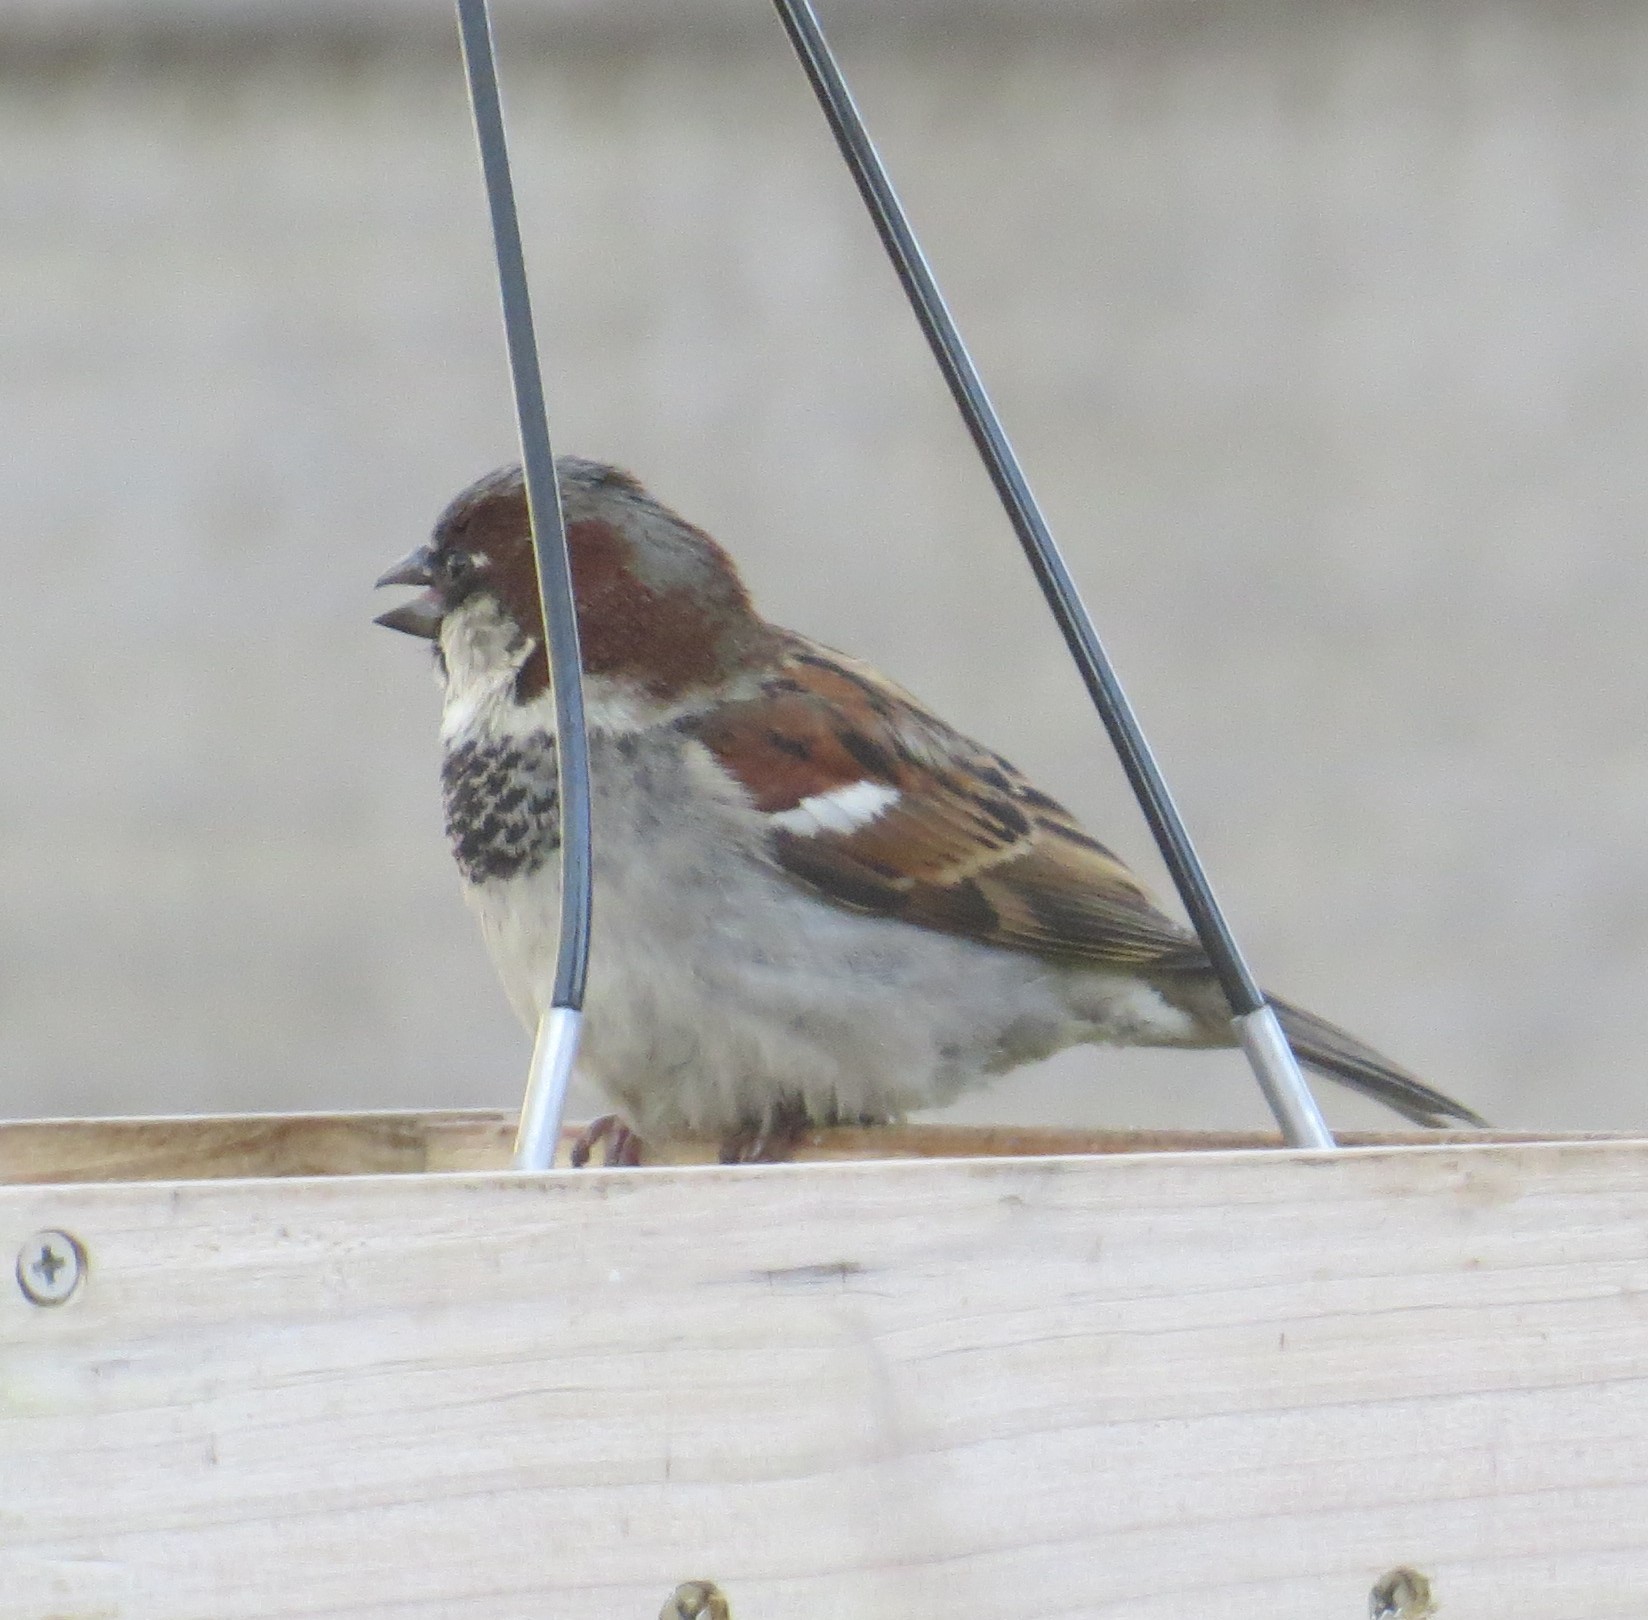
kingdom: Animalia
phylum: Chordata
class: Aves
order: Passeriformes
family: Passeridae
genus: Passer
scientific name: Passer domesticus
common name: House sparrow
